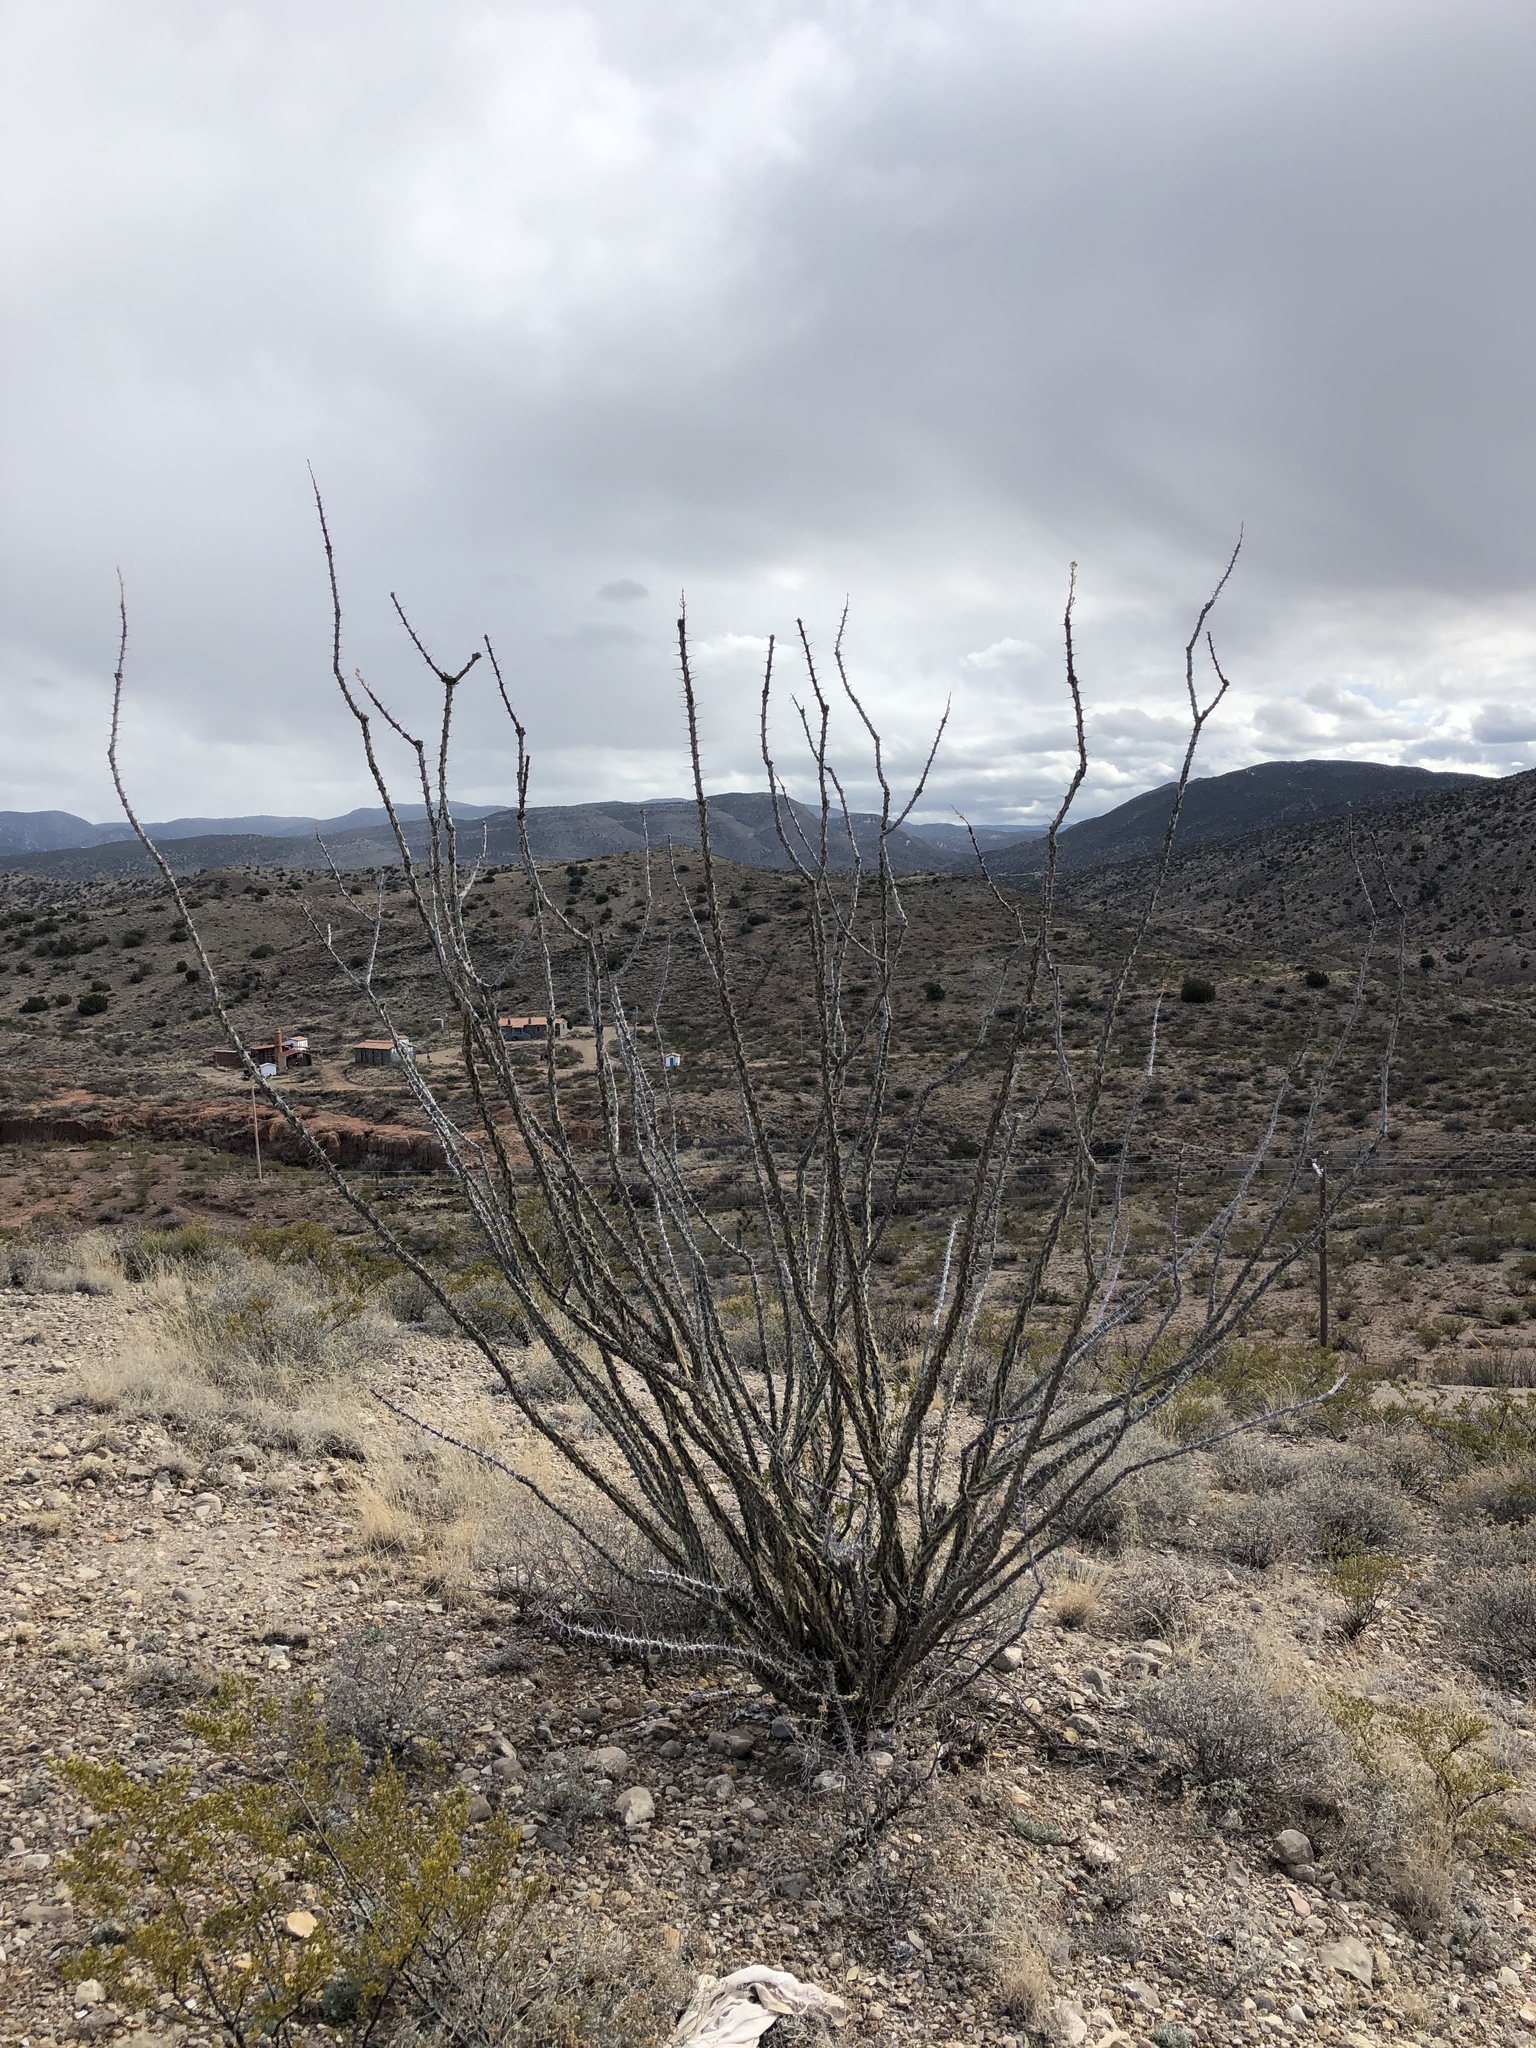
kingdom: Plantae
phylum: Tracheophyta
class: Magnoliopsida
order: Ericales
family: Fouquieriaceae
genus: Fouquieria
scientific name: Fouquieria splendens
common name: Vine-cactus
